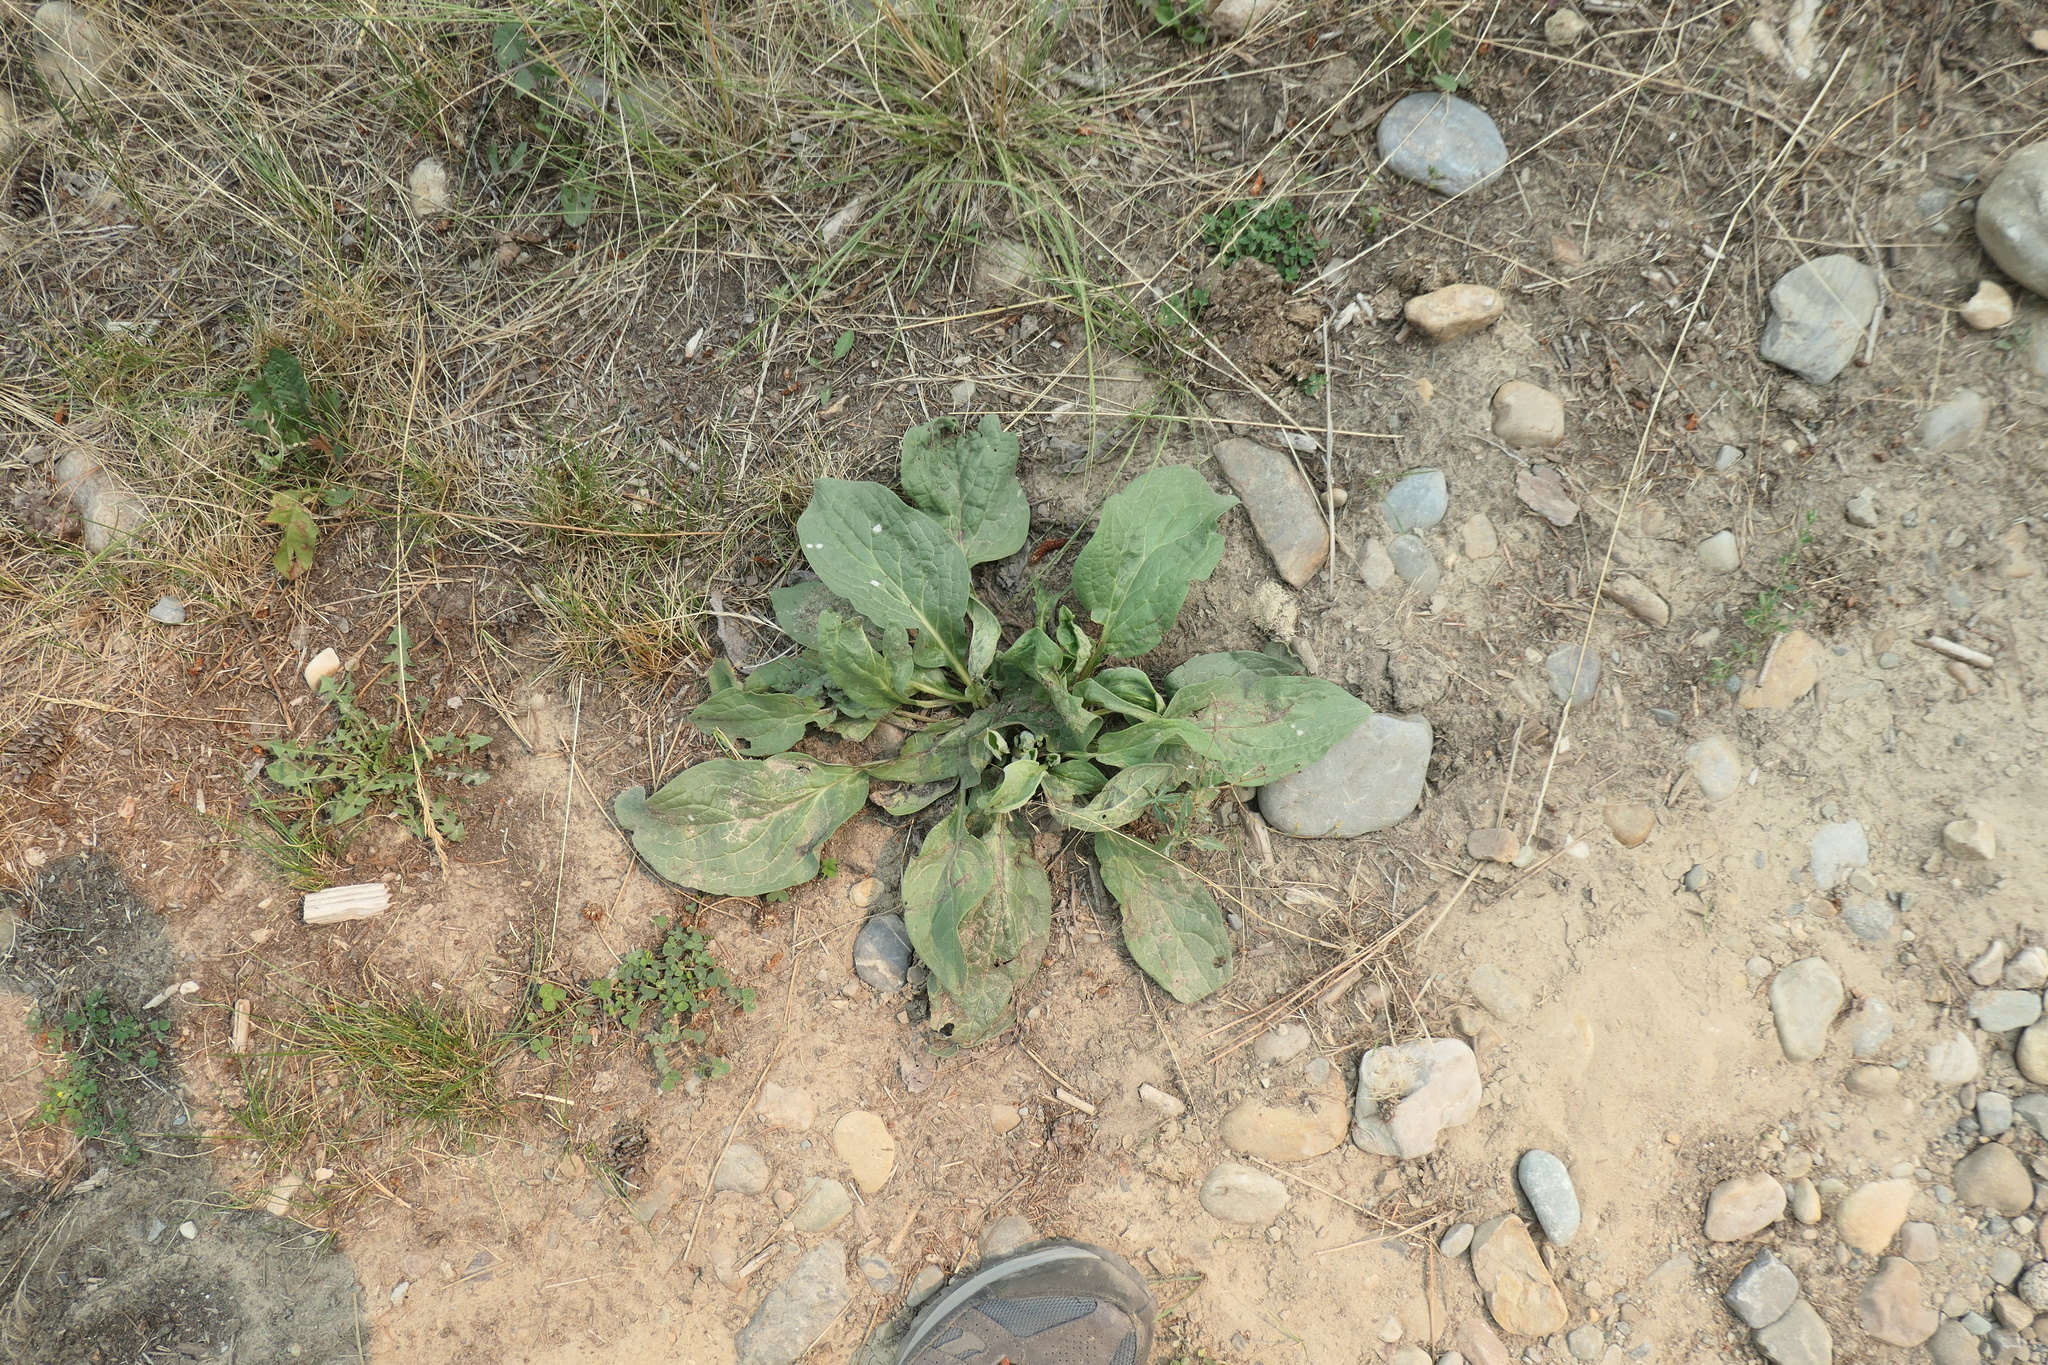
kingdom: Plantae
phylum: Tracheophyta
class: Magnoliopsida
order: Lamiales
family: Plantaginaceae
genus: Plantago
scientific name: Plantago major
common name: Common plantain
